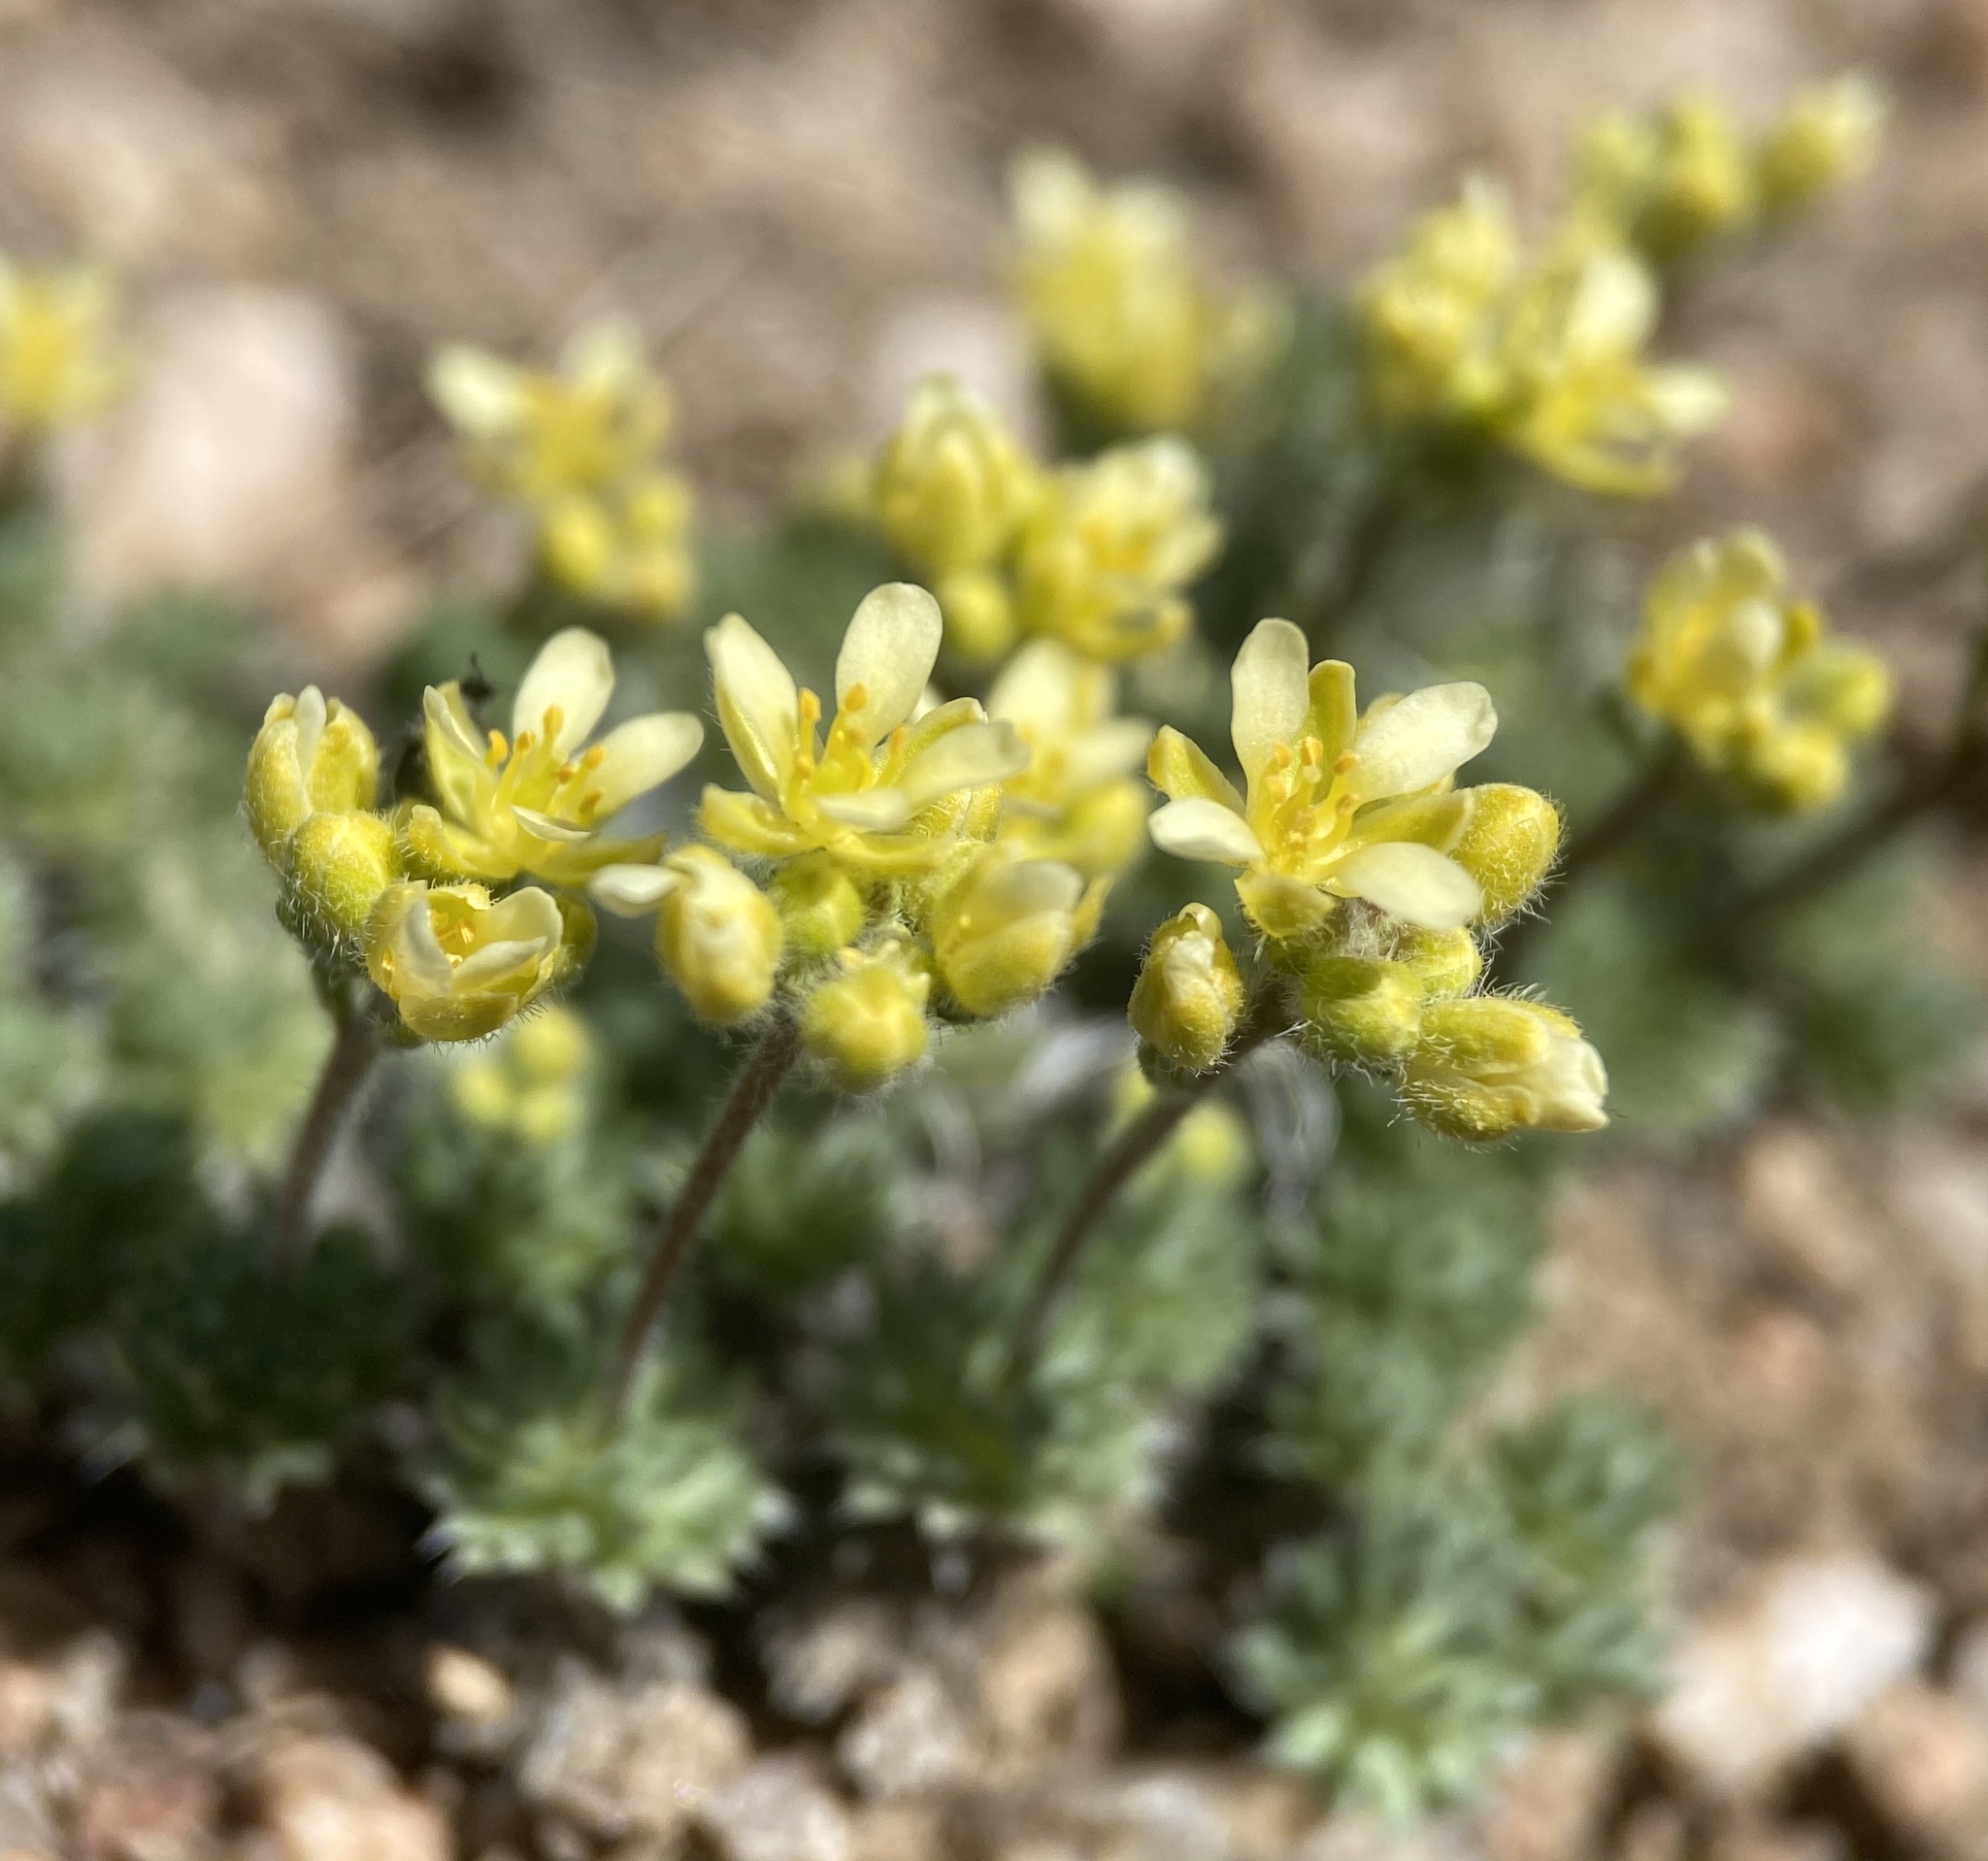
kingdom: Plantae
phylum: Tracheophyta
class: Magnoliopsida
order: Brassicales
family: Brassicaceae
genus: Cusickiella
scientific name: Cusickiella quadricostata
